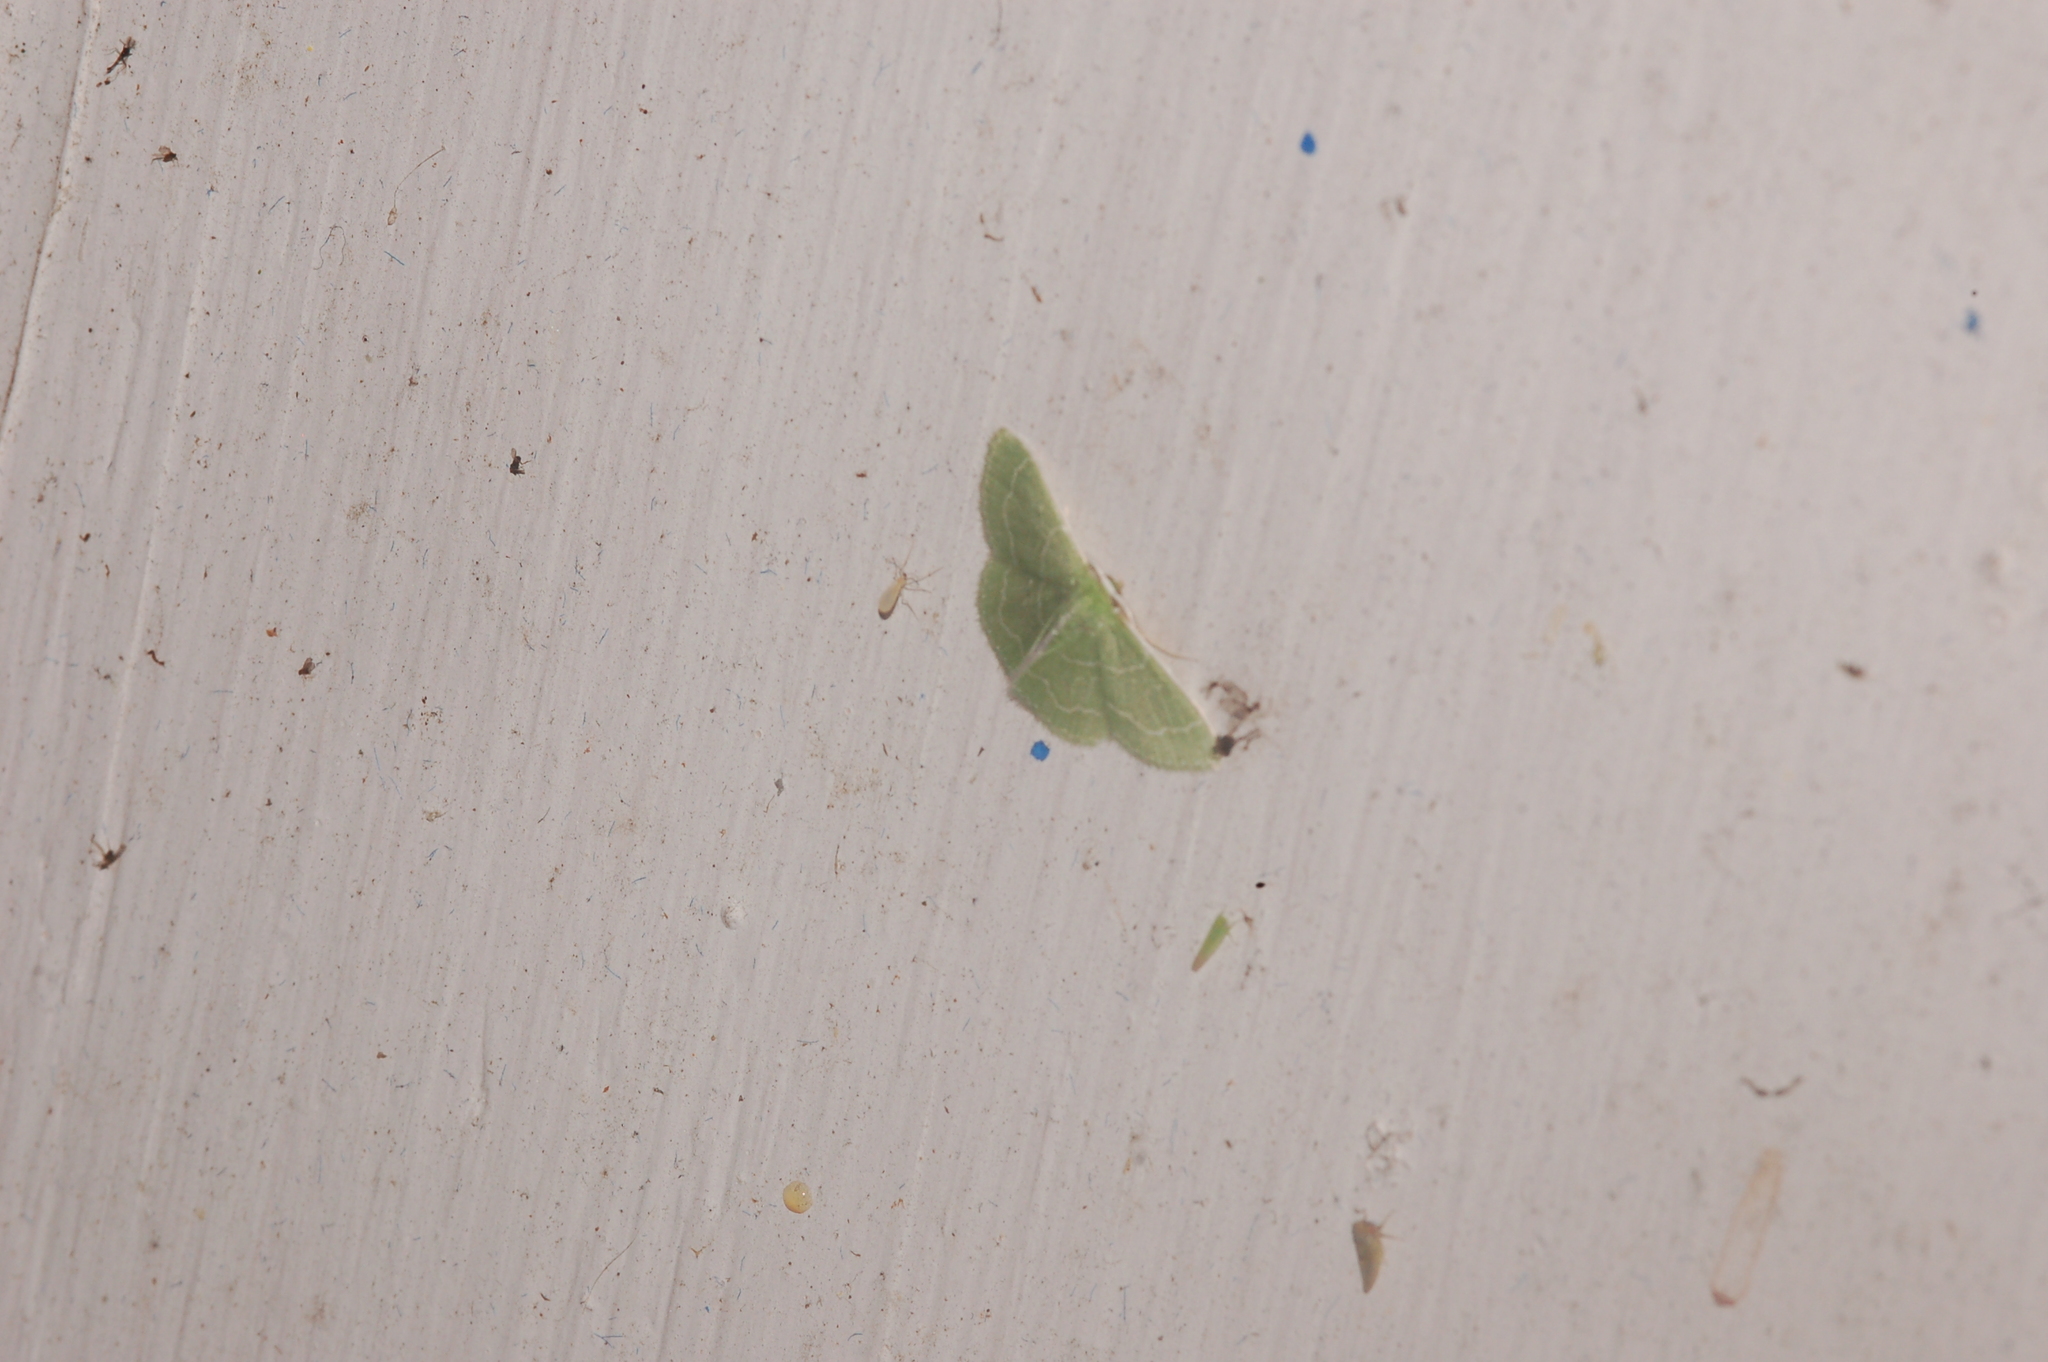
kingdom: Animalia
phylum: Arthropoda
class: Insecta
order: Lepidoptera
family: Geometridae
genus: Synchlora
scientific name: Synchlora aerata
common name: Wavy-lined emerald
